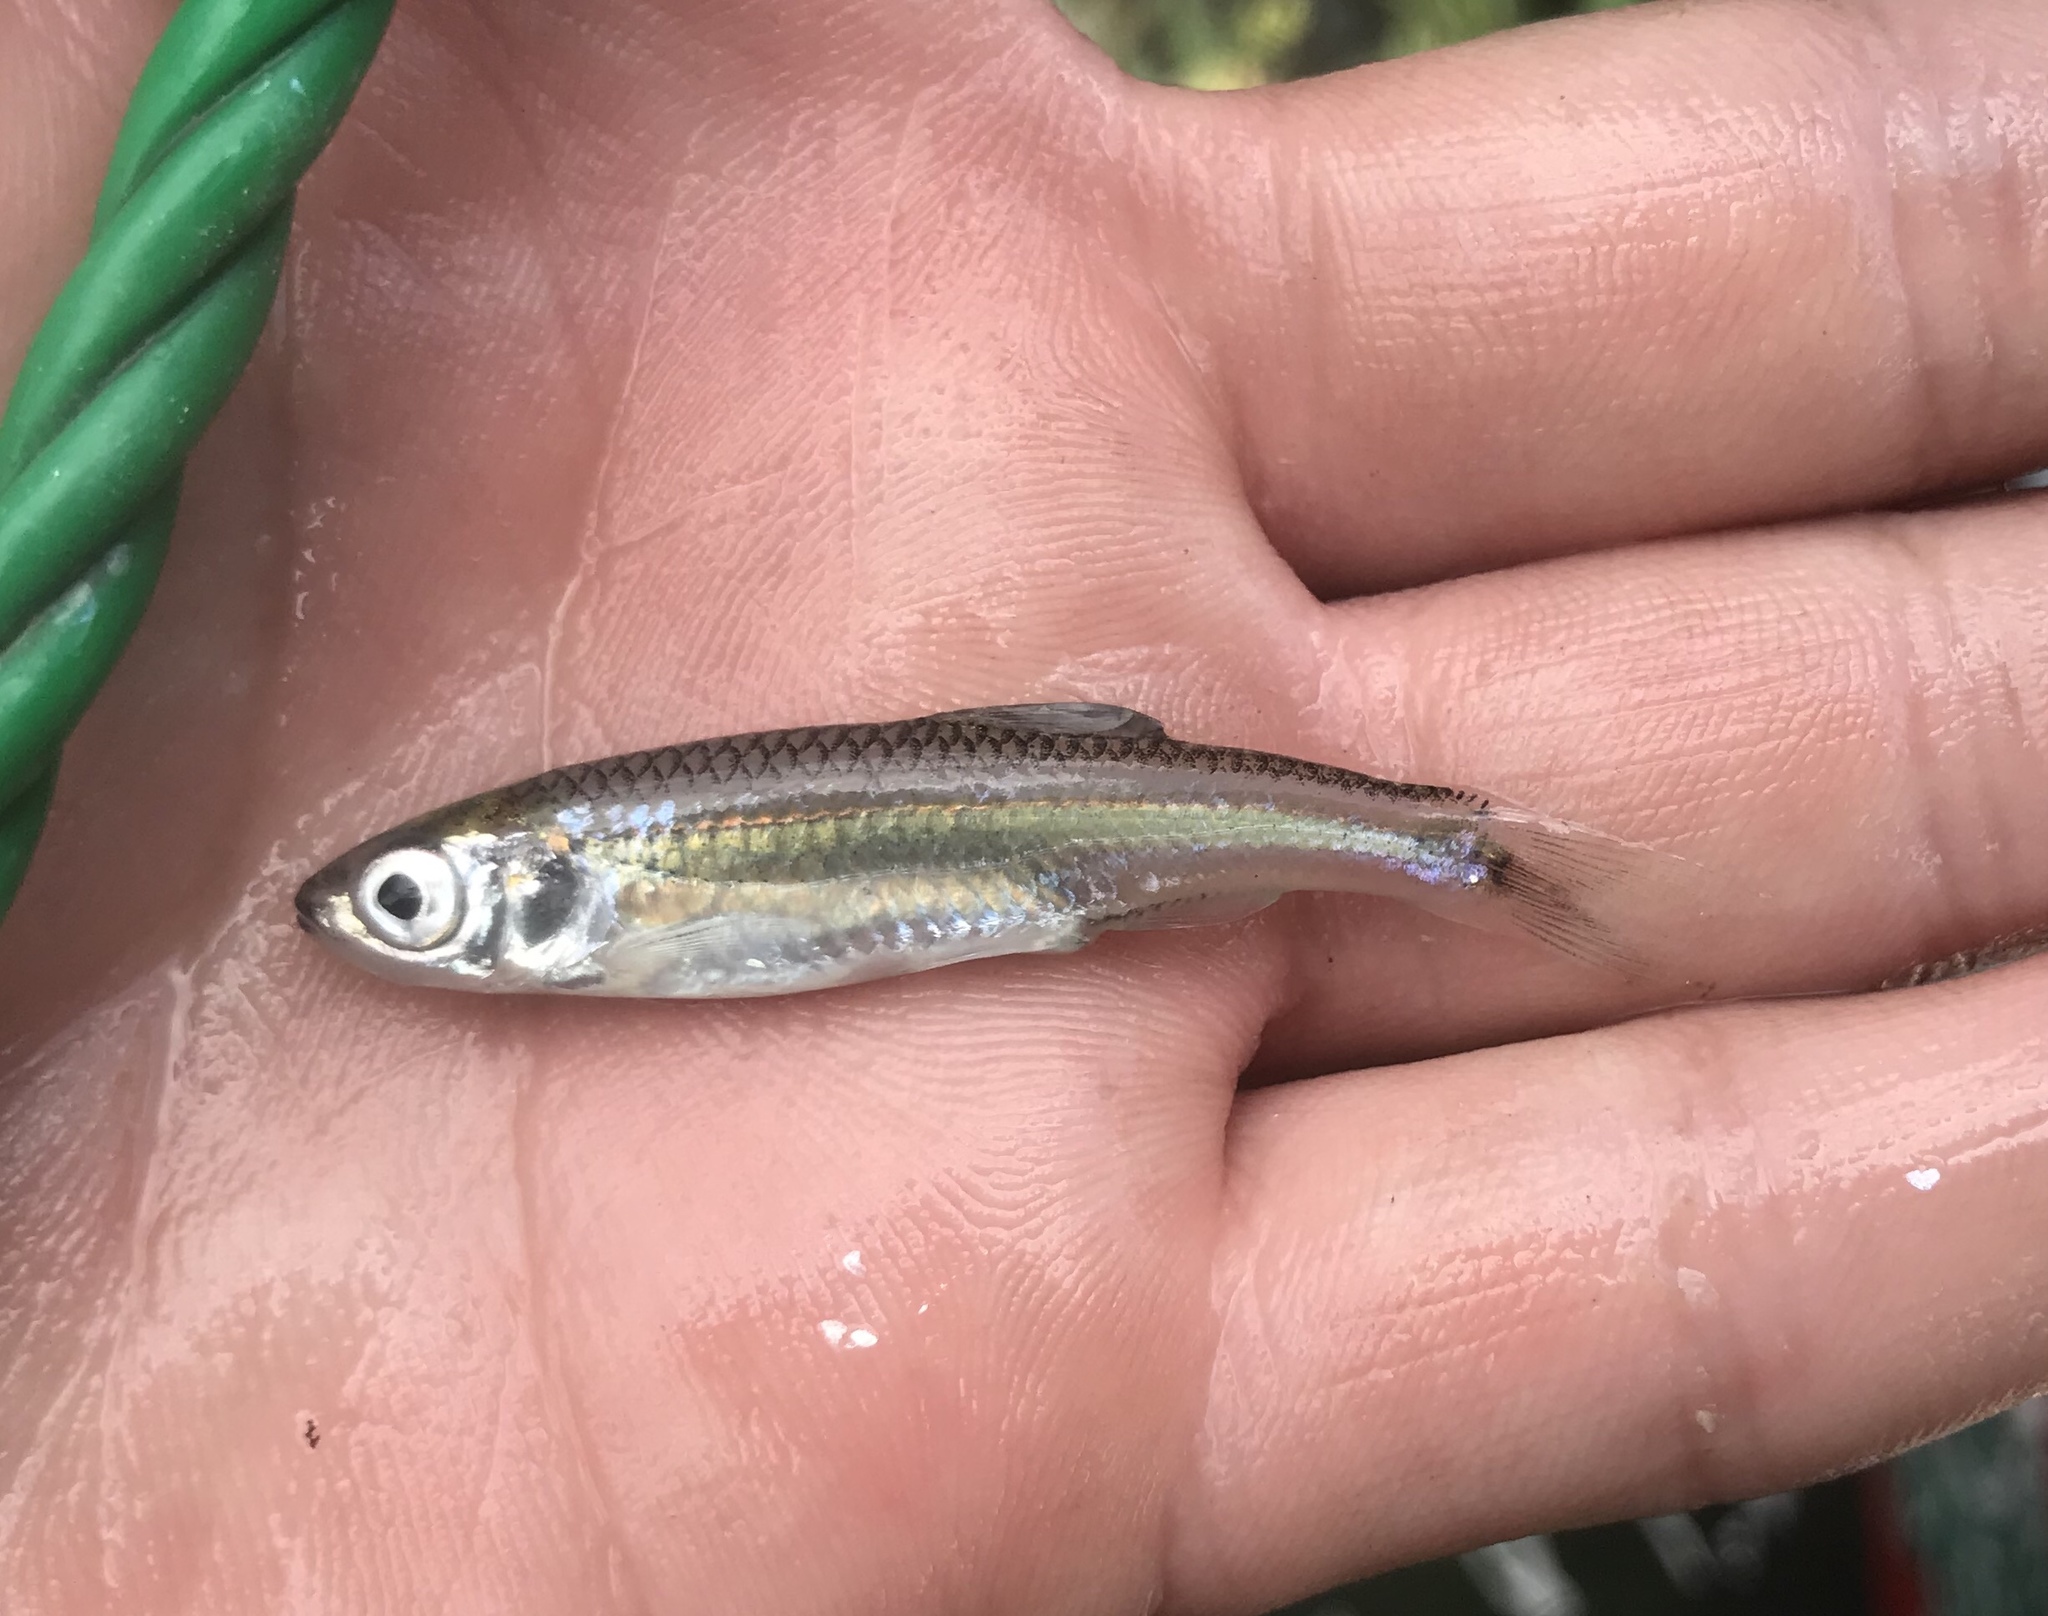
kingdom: Animalia
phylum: Chordata
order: Cypriniformes
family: Cyprinidae
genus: Notropis
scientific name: Notropis amabilis
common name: Texas shiner
